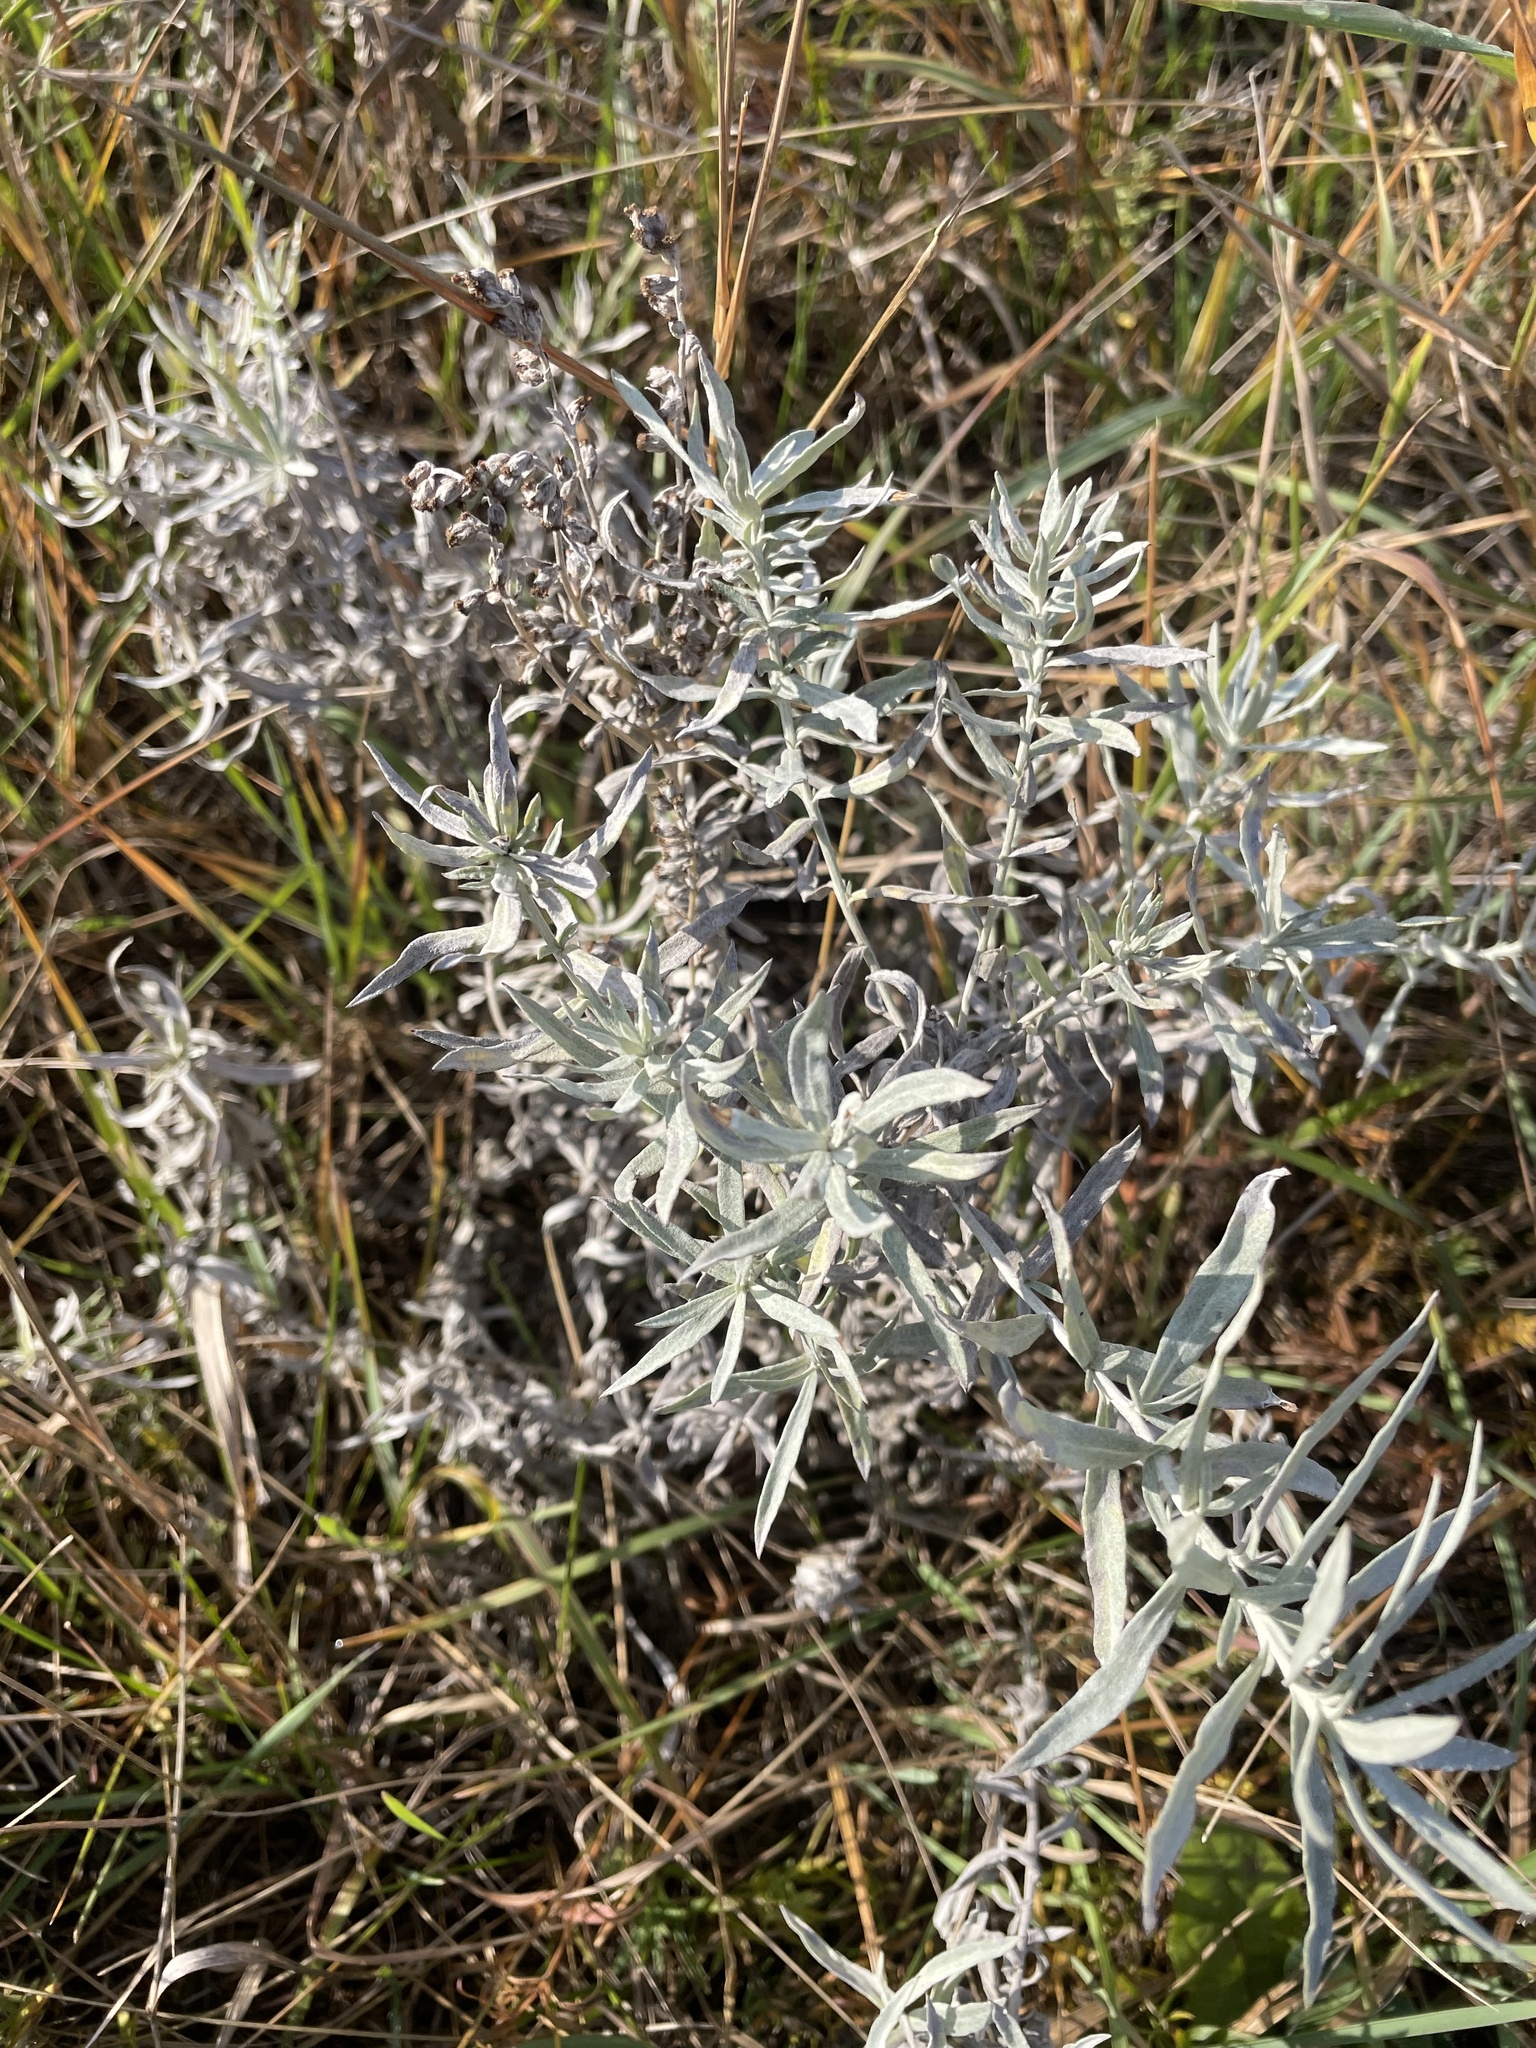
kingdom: Plantae
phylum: Tracheophyta
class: Magnoliopsida
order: Asterales
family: Asteraceae
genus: Artemisia
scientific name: Artemisia ludoviciana
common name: Western mugwort
